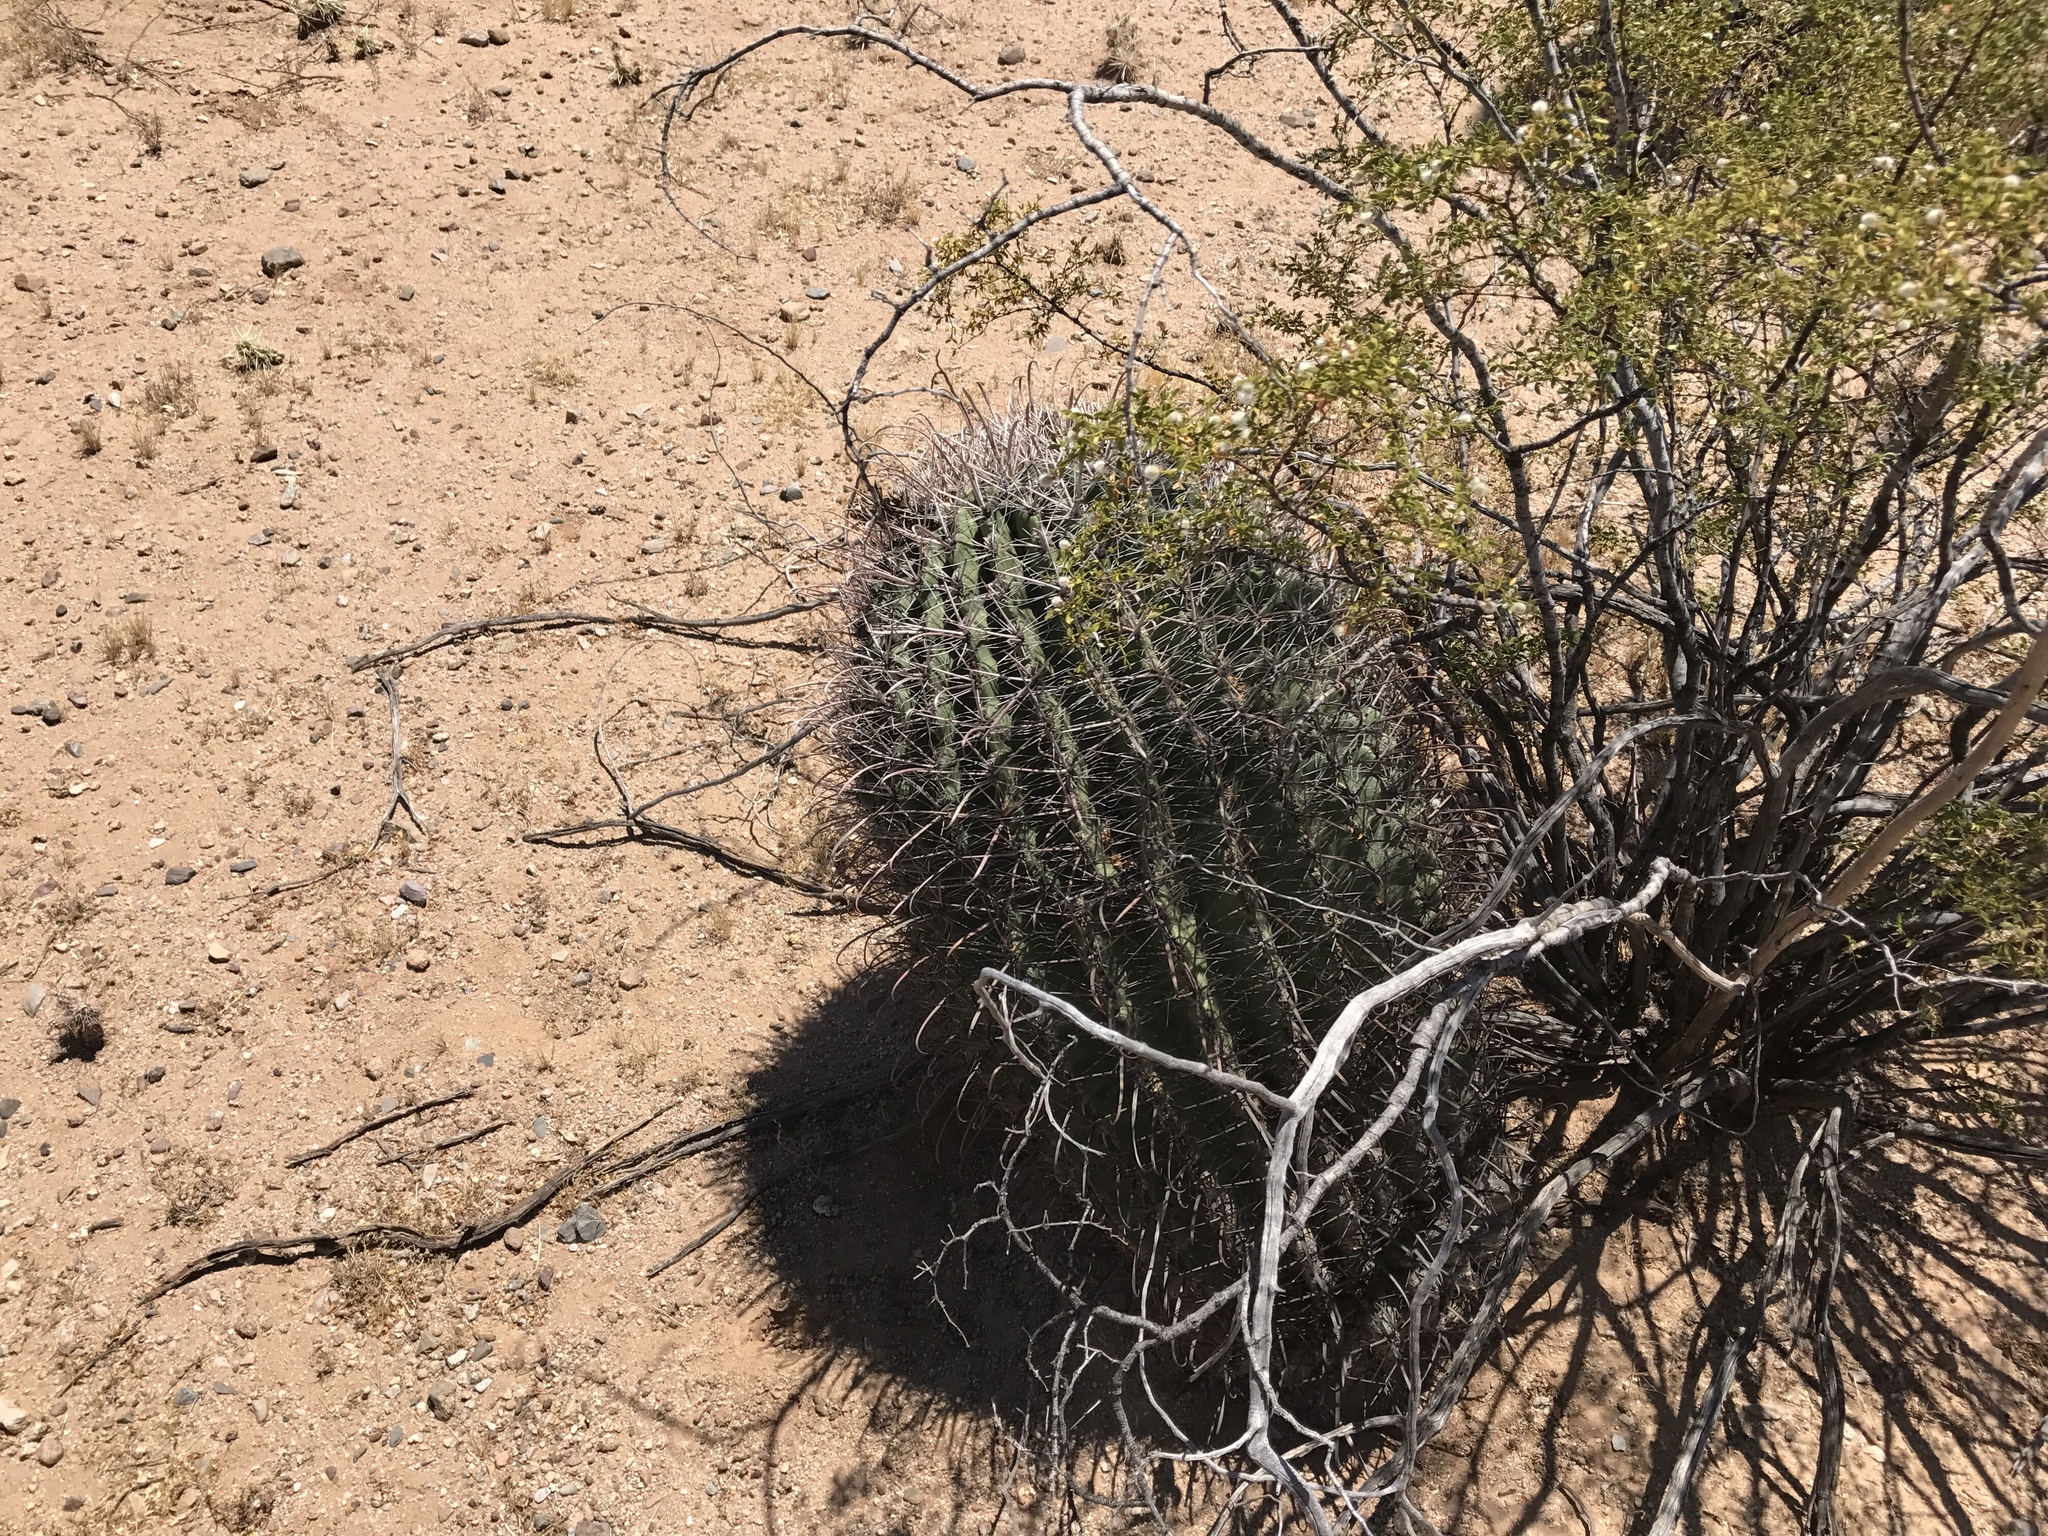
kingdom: Plantae
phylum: Tracheophyta
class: Magnoliopsida
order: Caryophyllales
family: Cactaceae
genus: Ferocactus
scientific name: Ferocactus wislizeni
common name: Candy barrel cactus
